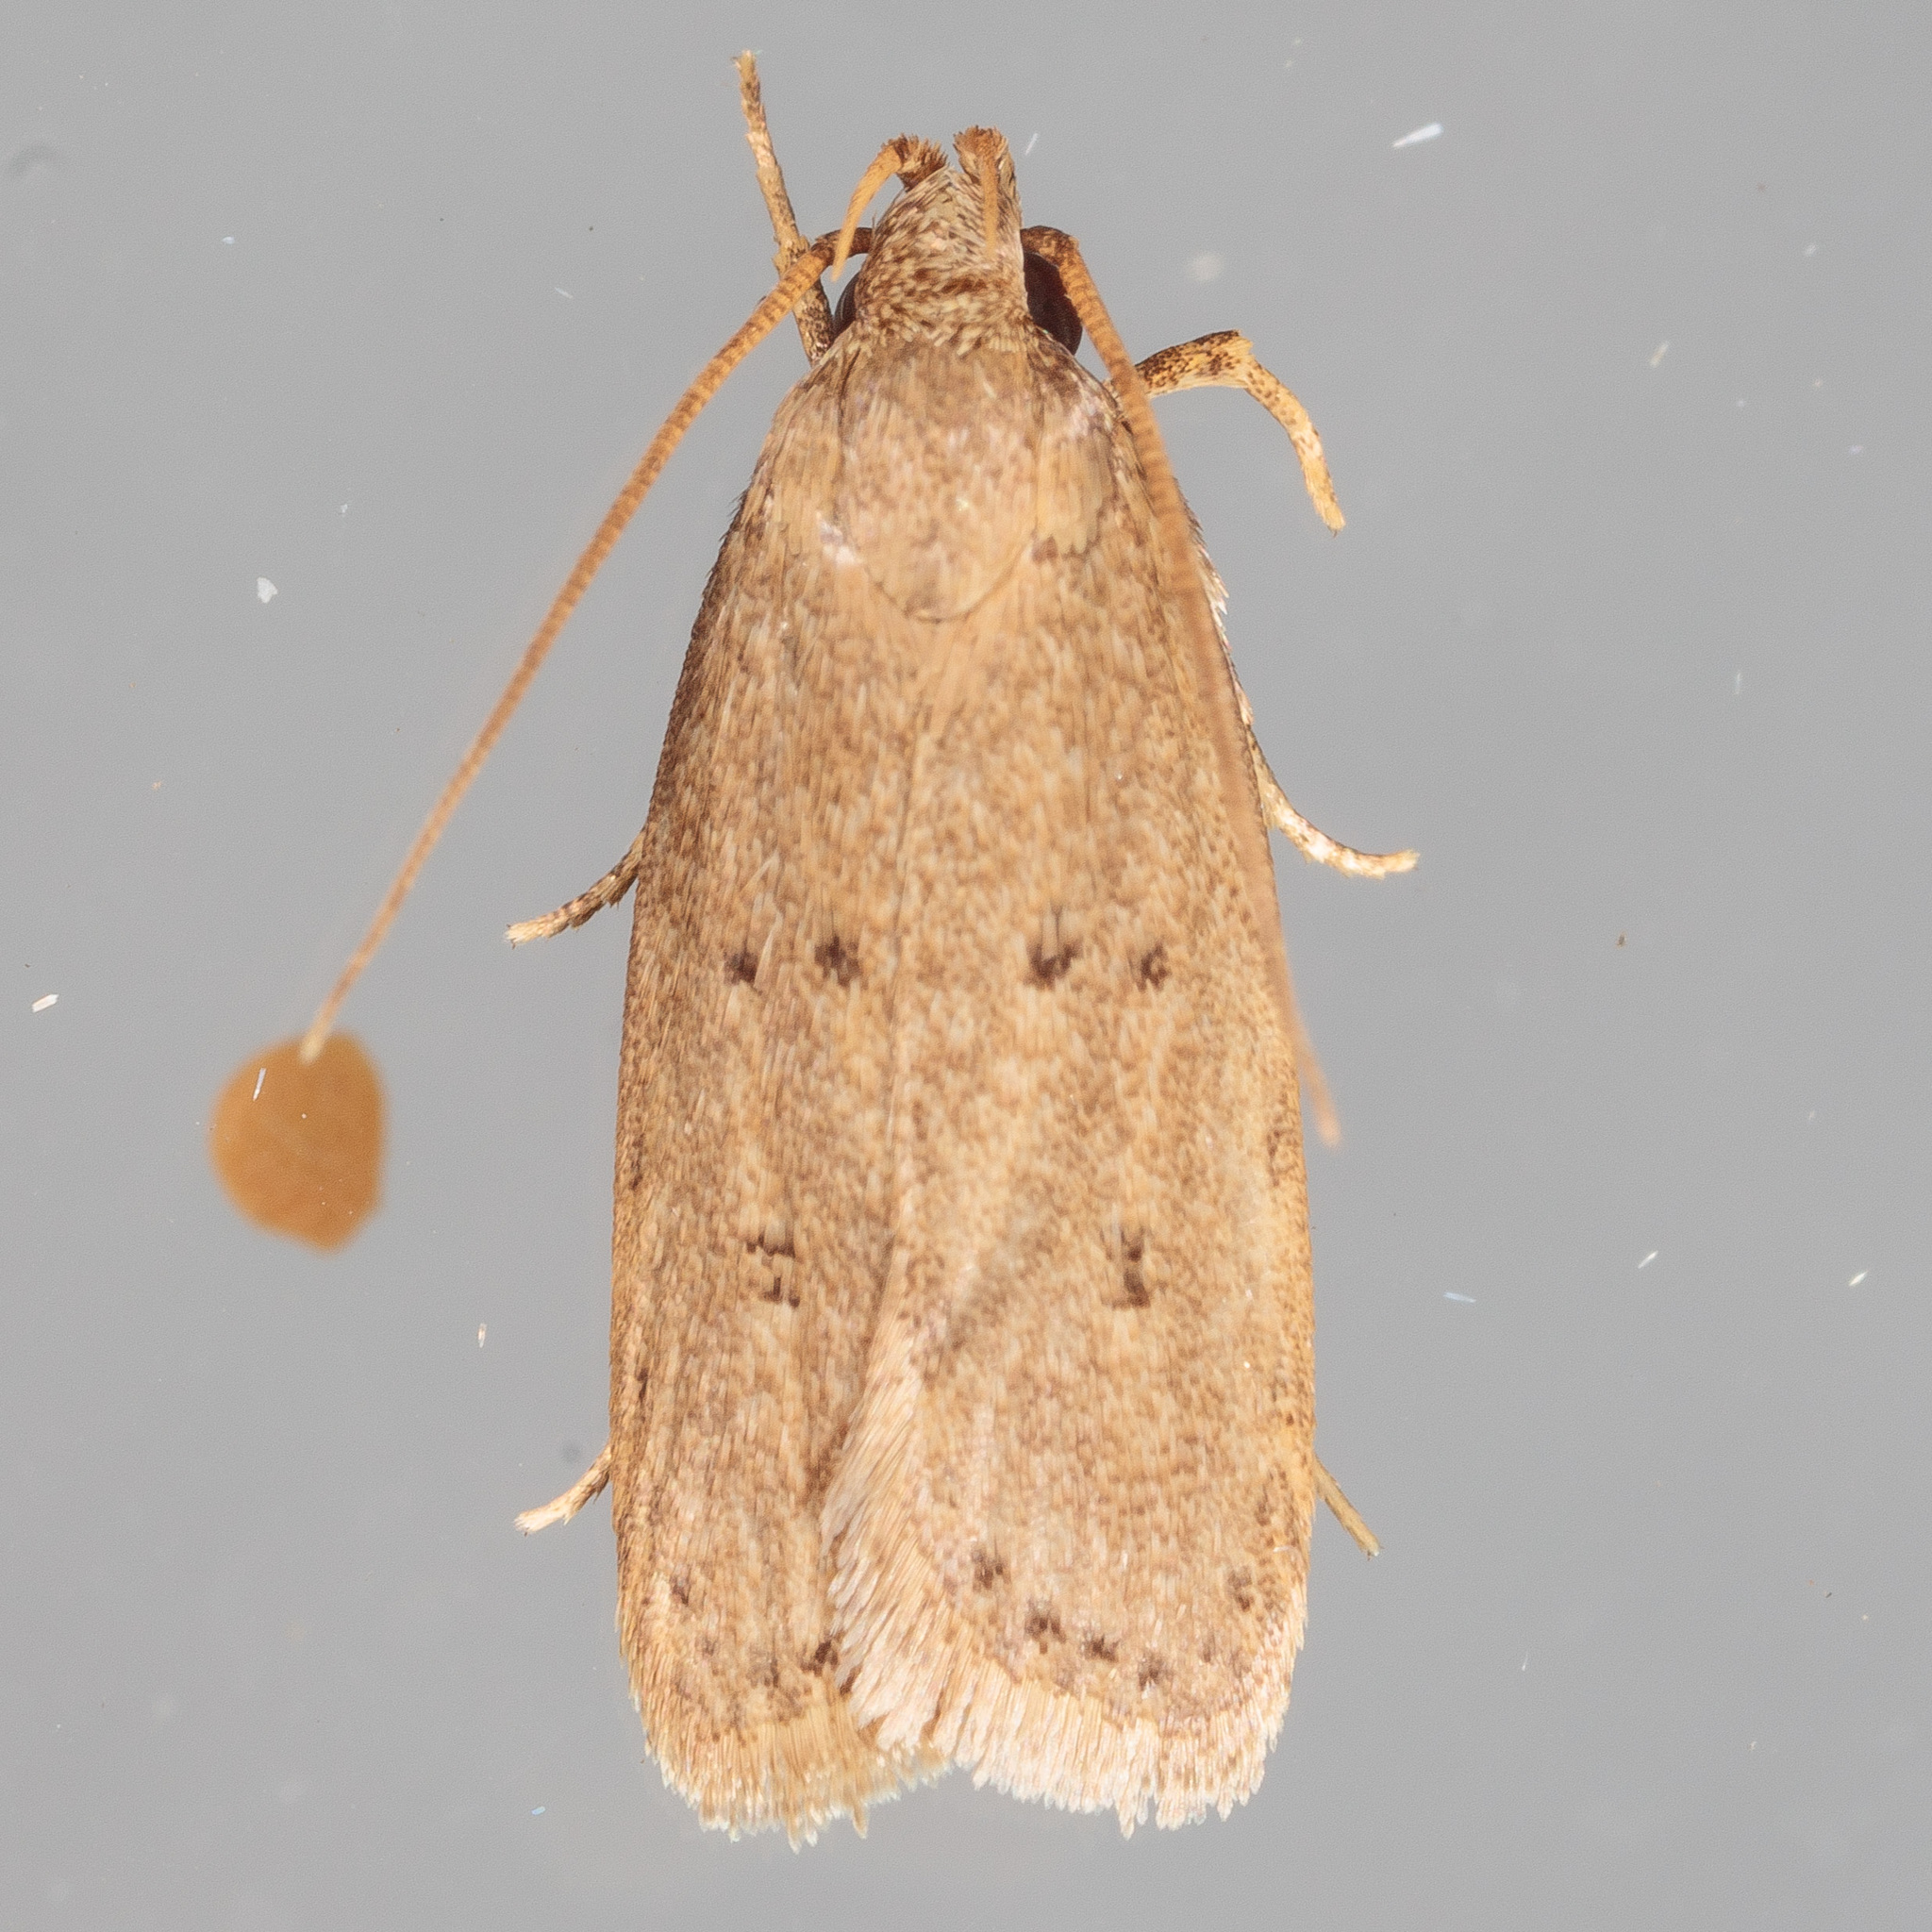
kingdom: Animalia
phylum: Arthropoda
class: Insecta
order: Lepidoptera
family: Autostichidae
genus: Autosticha
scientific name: Autosticha kyotensis
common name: Kyoto moth
